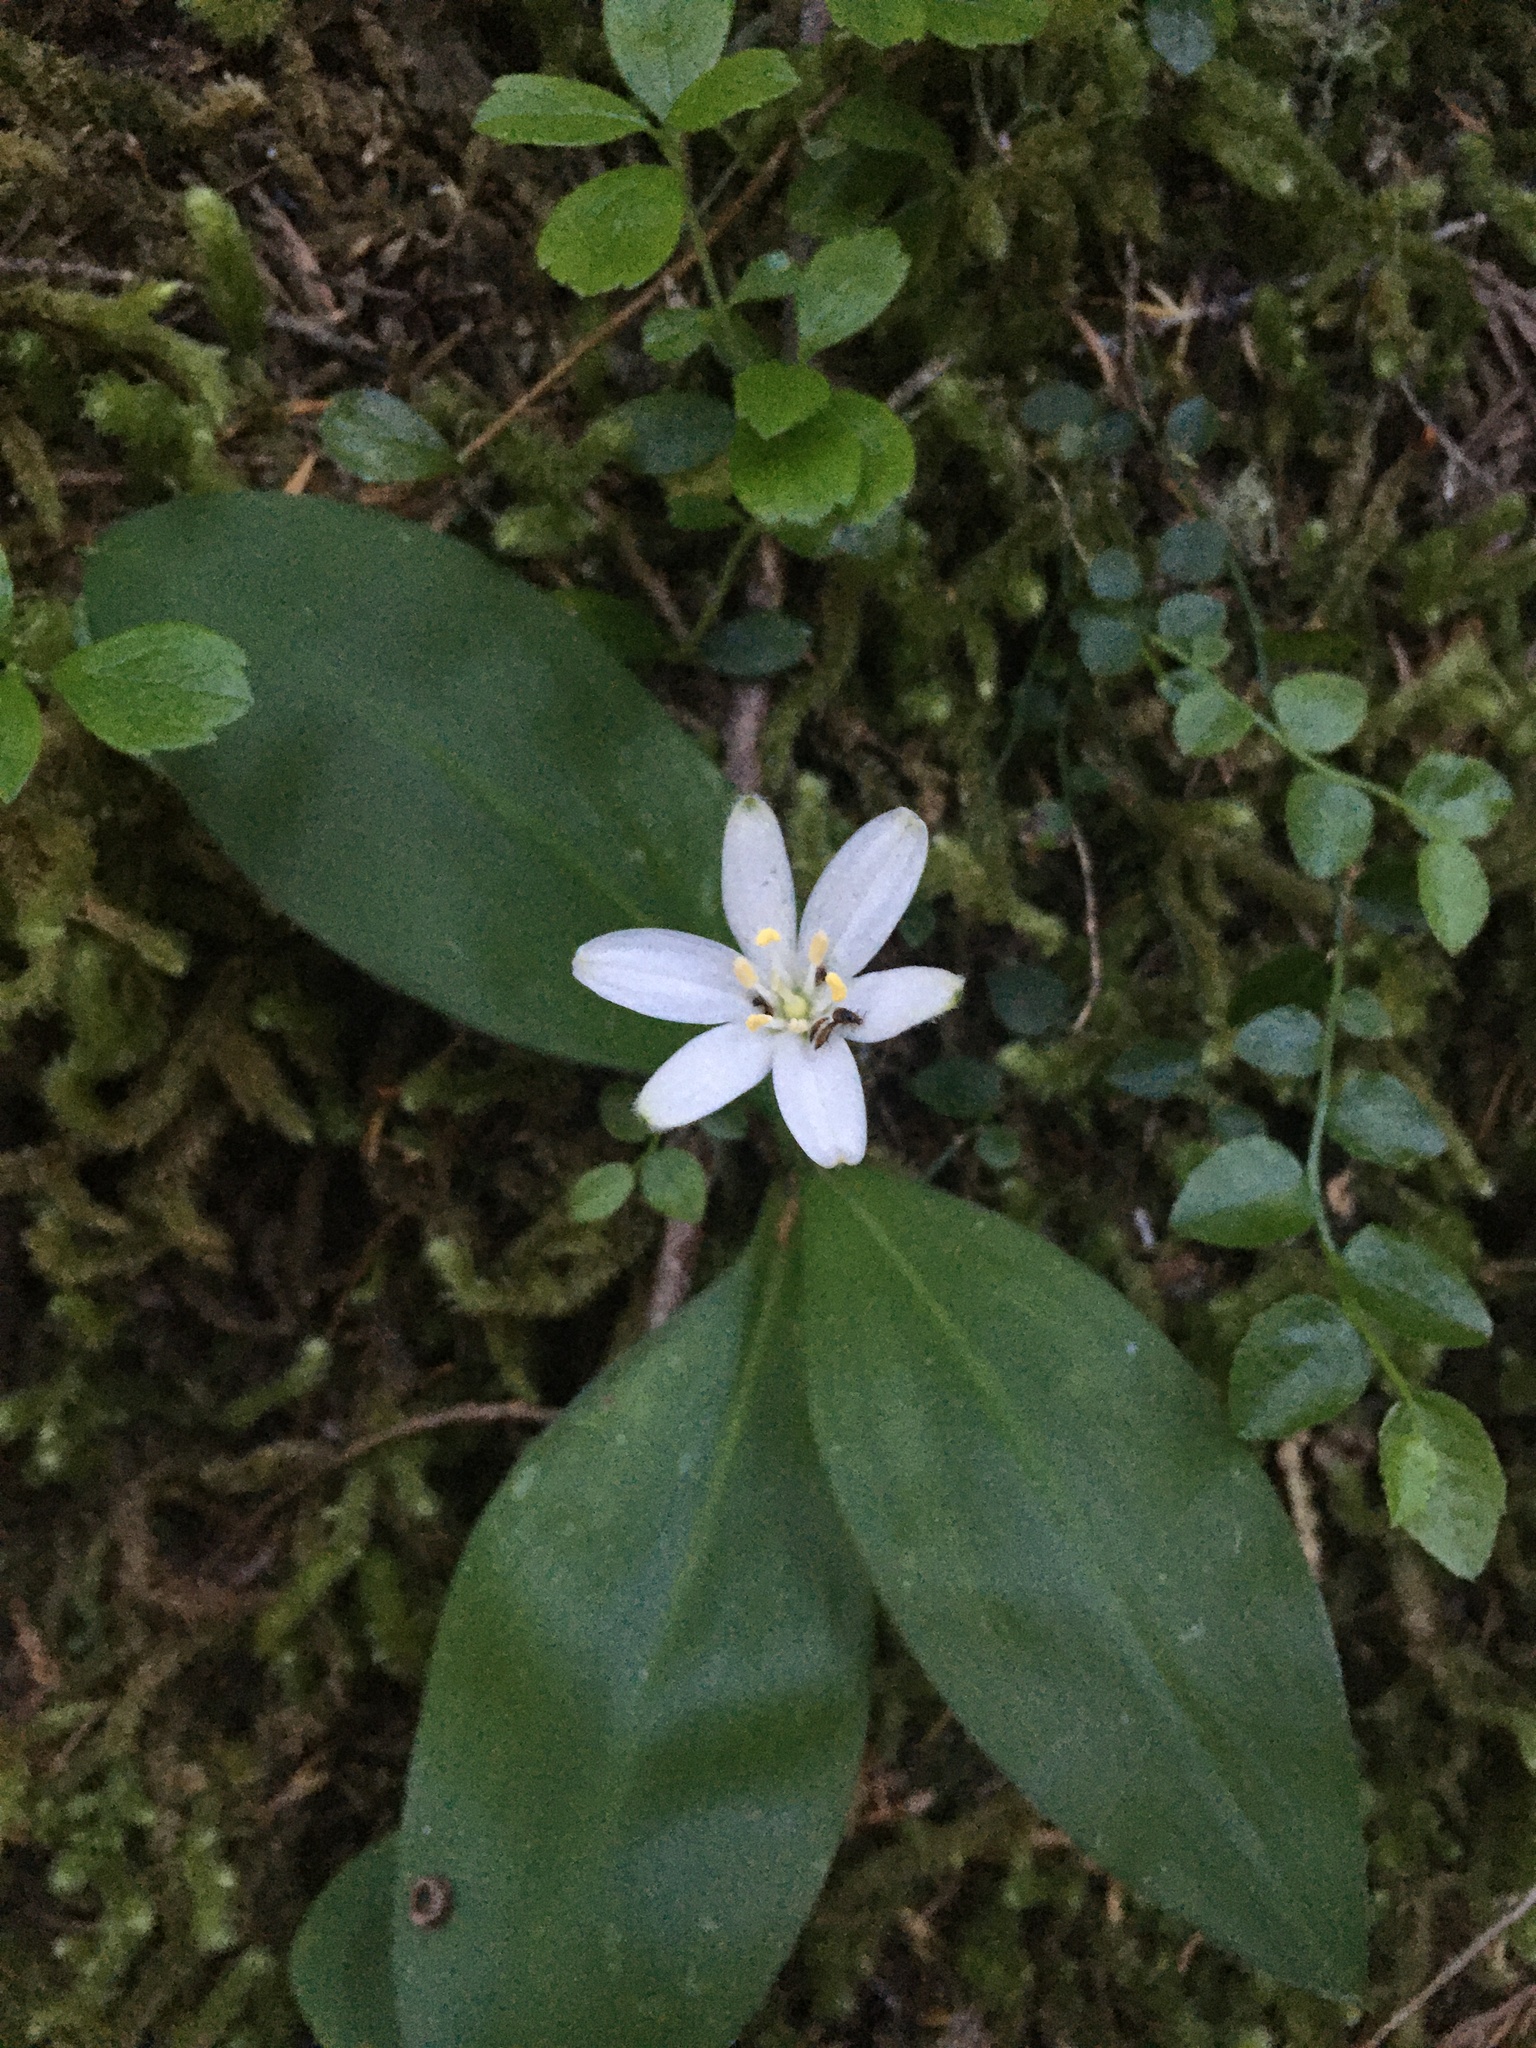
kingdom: Plantae
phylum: Tracheophyta
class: Liliopsida
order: Liliales
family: Liliaceae
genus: Clintonia
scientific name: Clintonia uniflora
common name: Queen's cup
